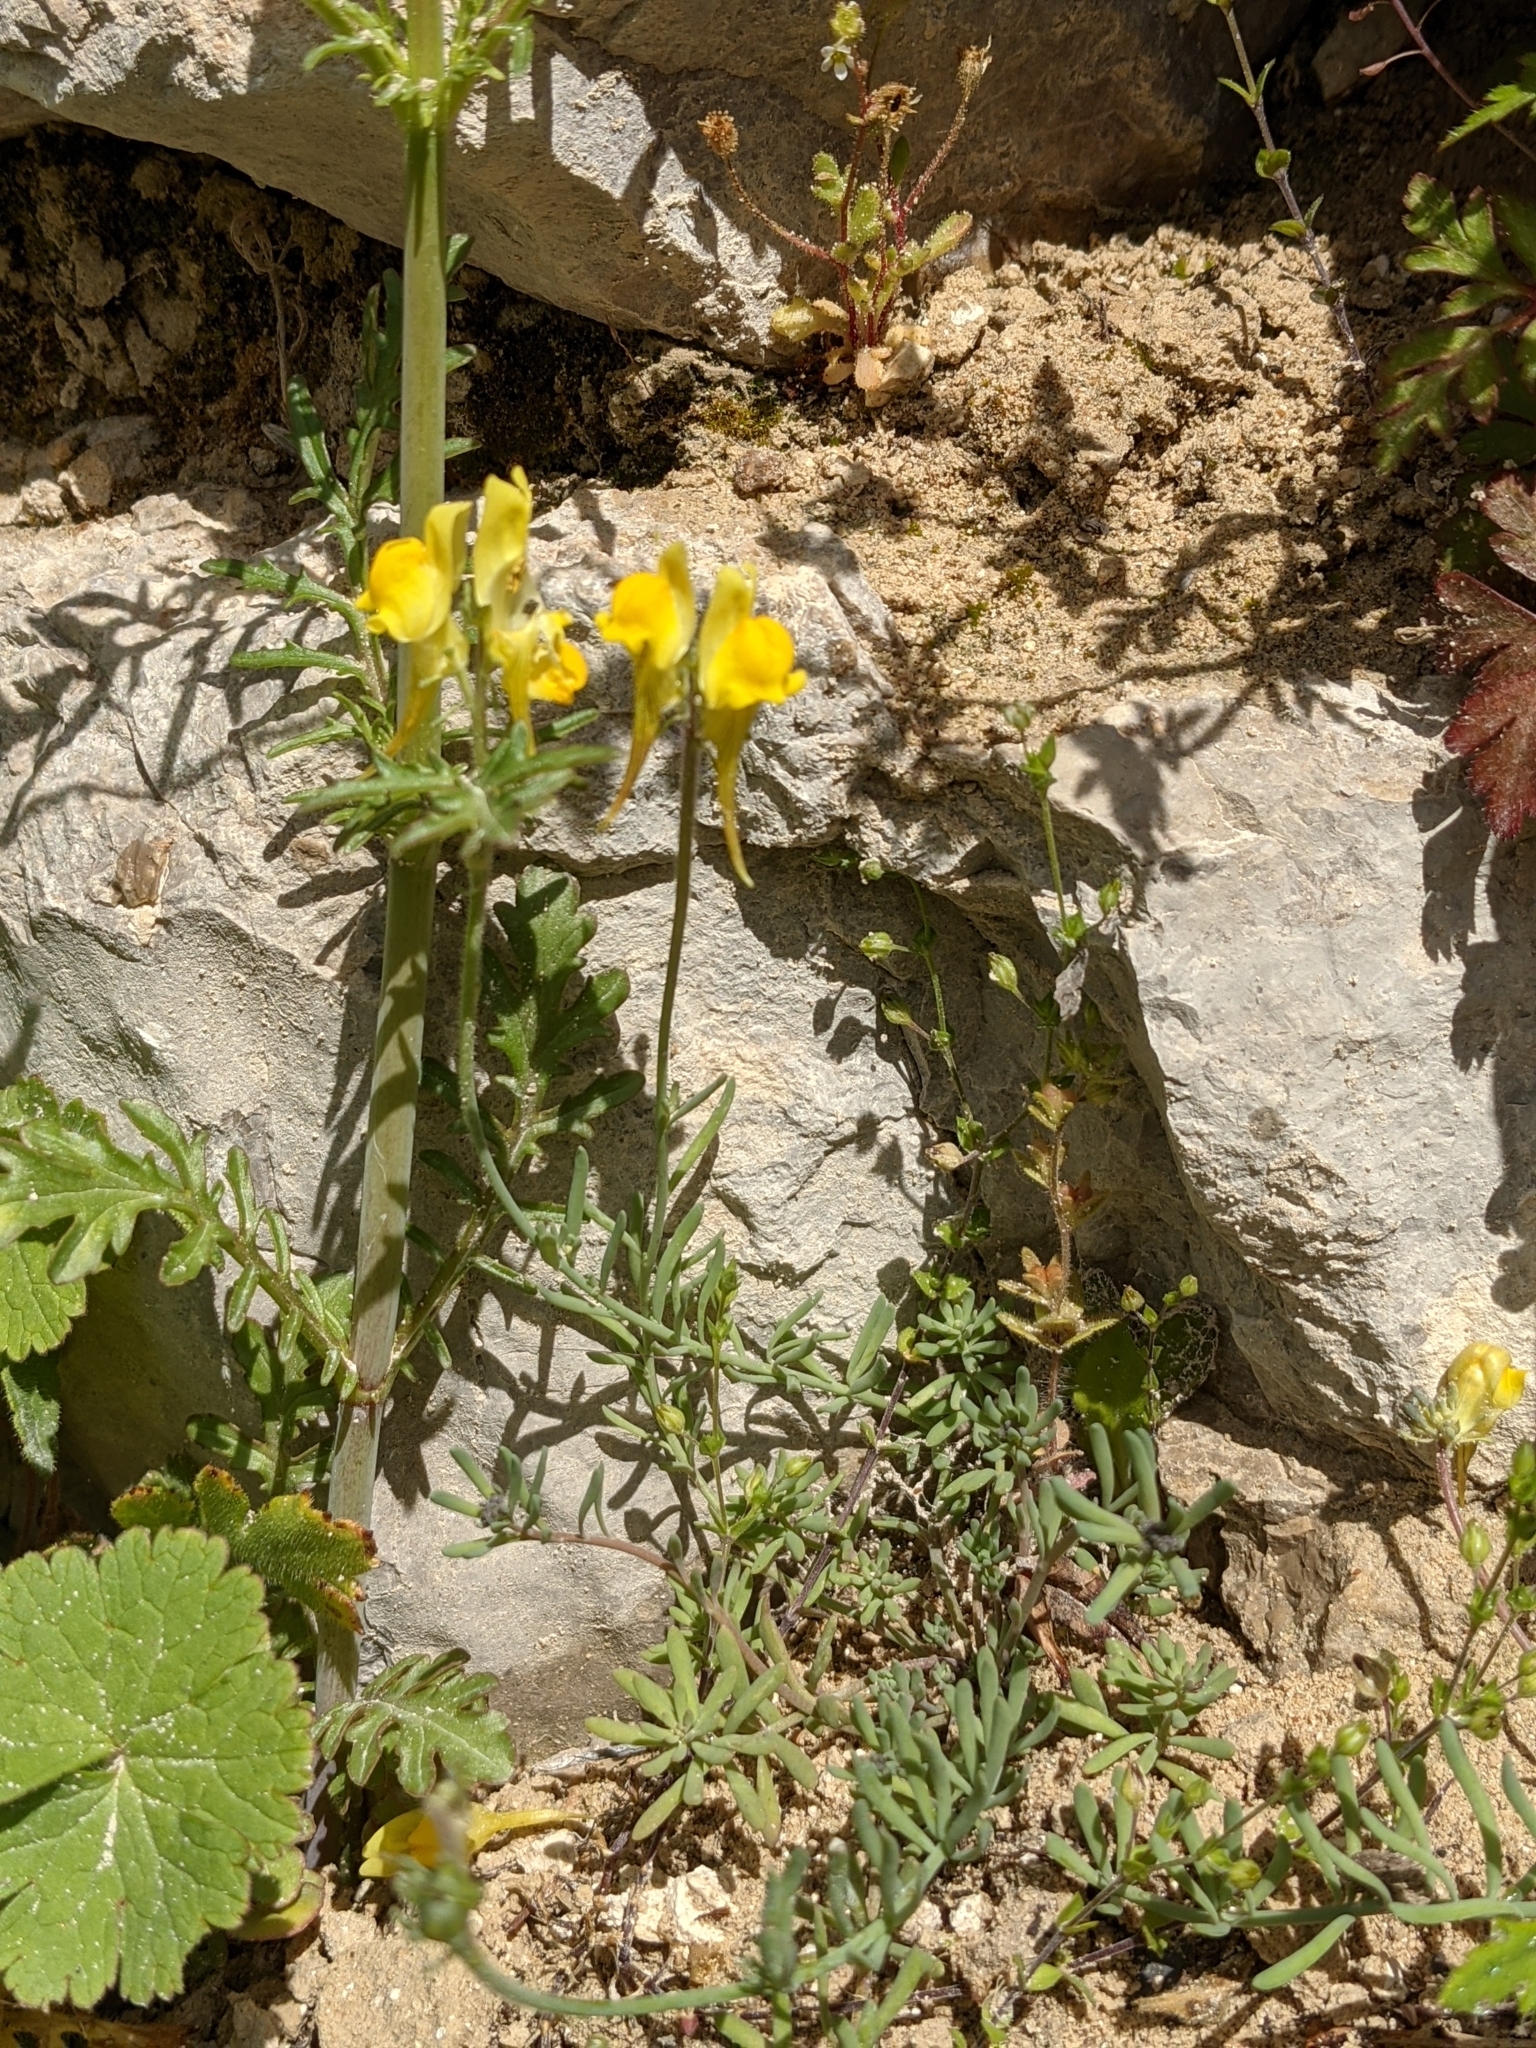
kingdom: Plantae
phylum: Tracheophyta
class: Magnoliopsida
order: Lamiales
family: Plantaginaceae
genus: Linaria
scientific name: Linaria supina
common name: Prostrate toadflax
